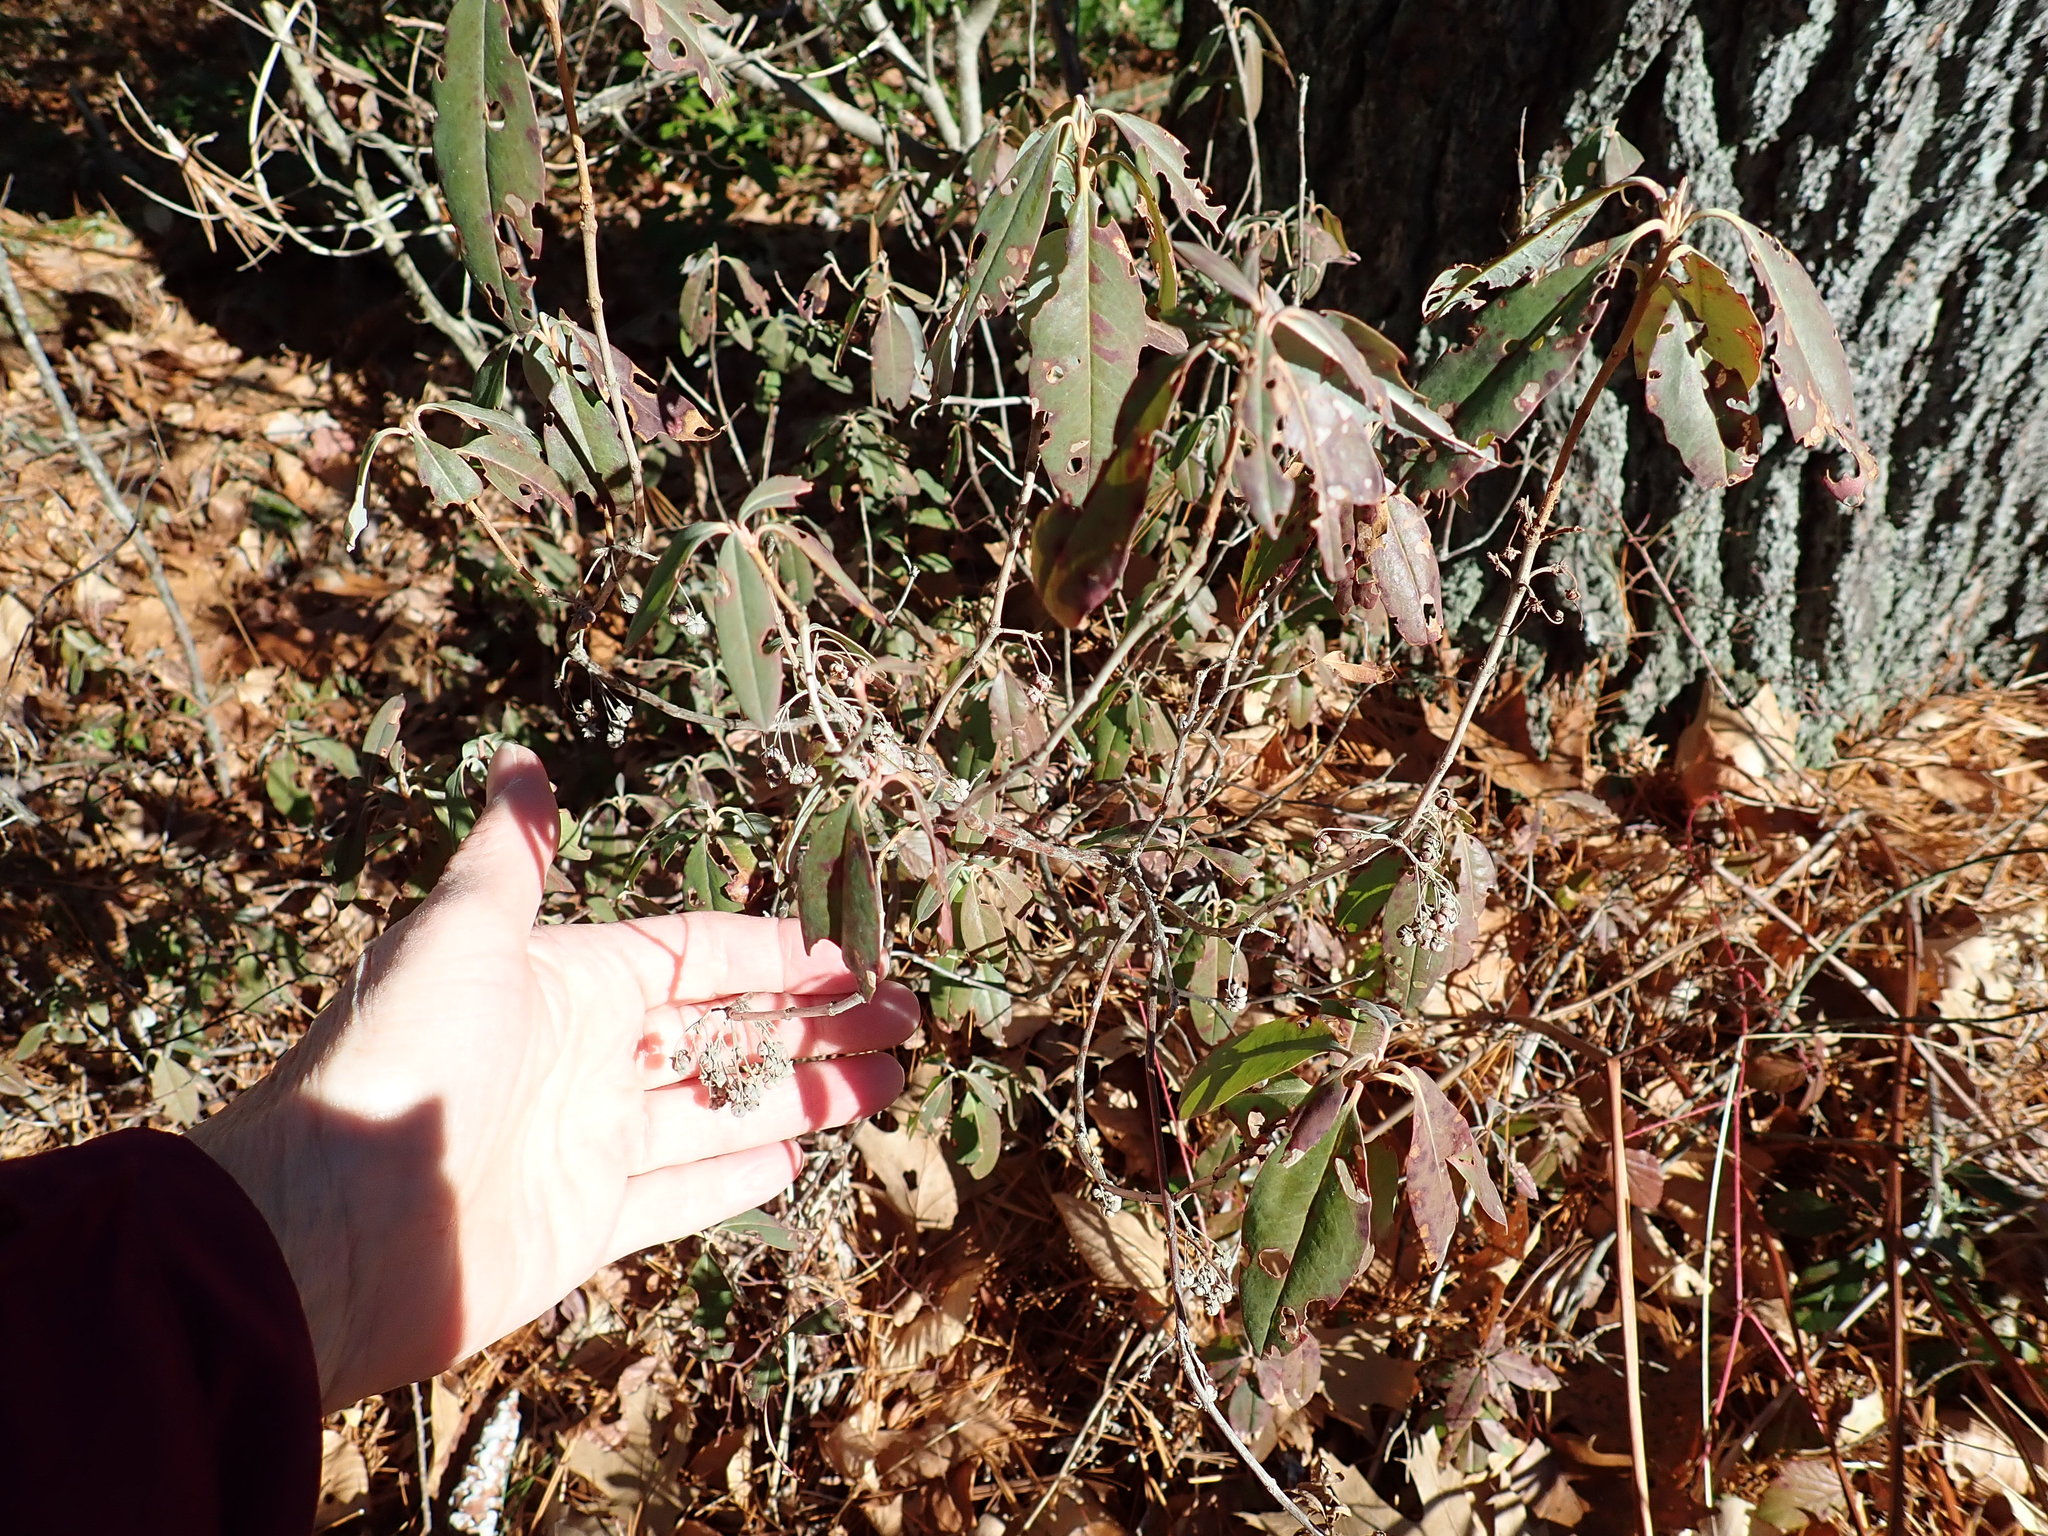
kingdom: Plantae
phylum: Tracheophyta
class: Magnoliopsida
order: Ericales
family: Ericaceae
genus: Kalmia
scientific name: Kalmia angustifolia
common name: Sheep-laurel
